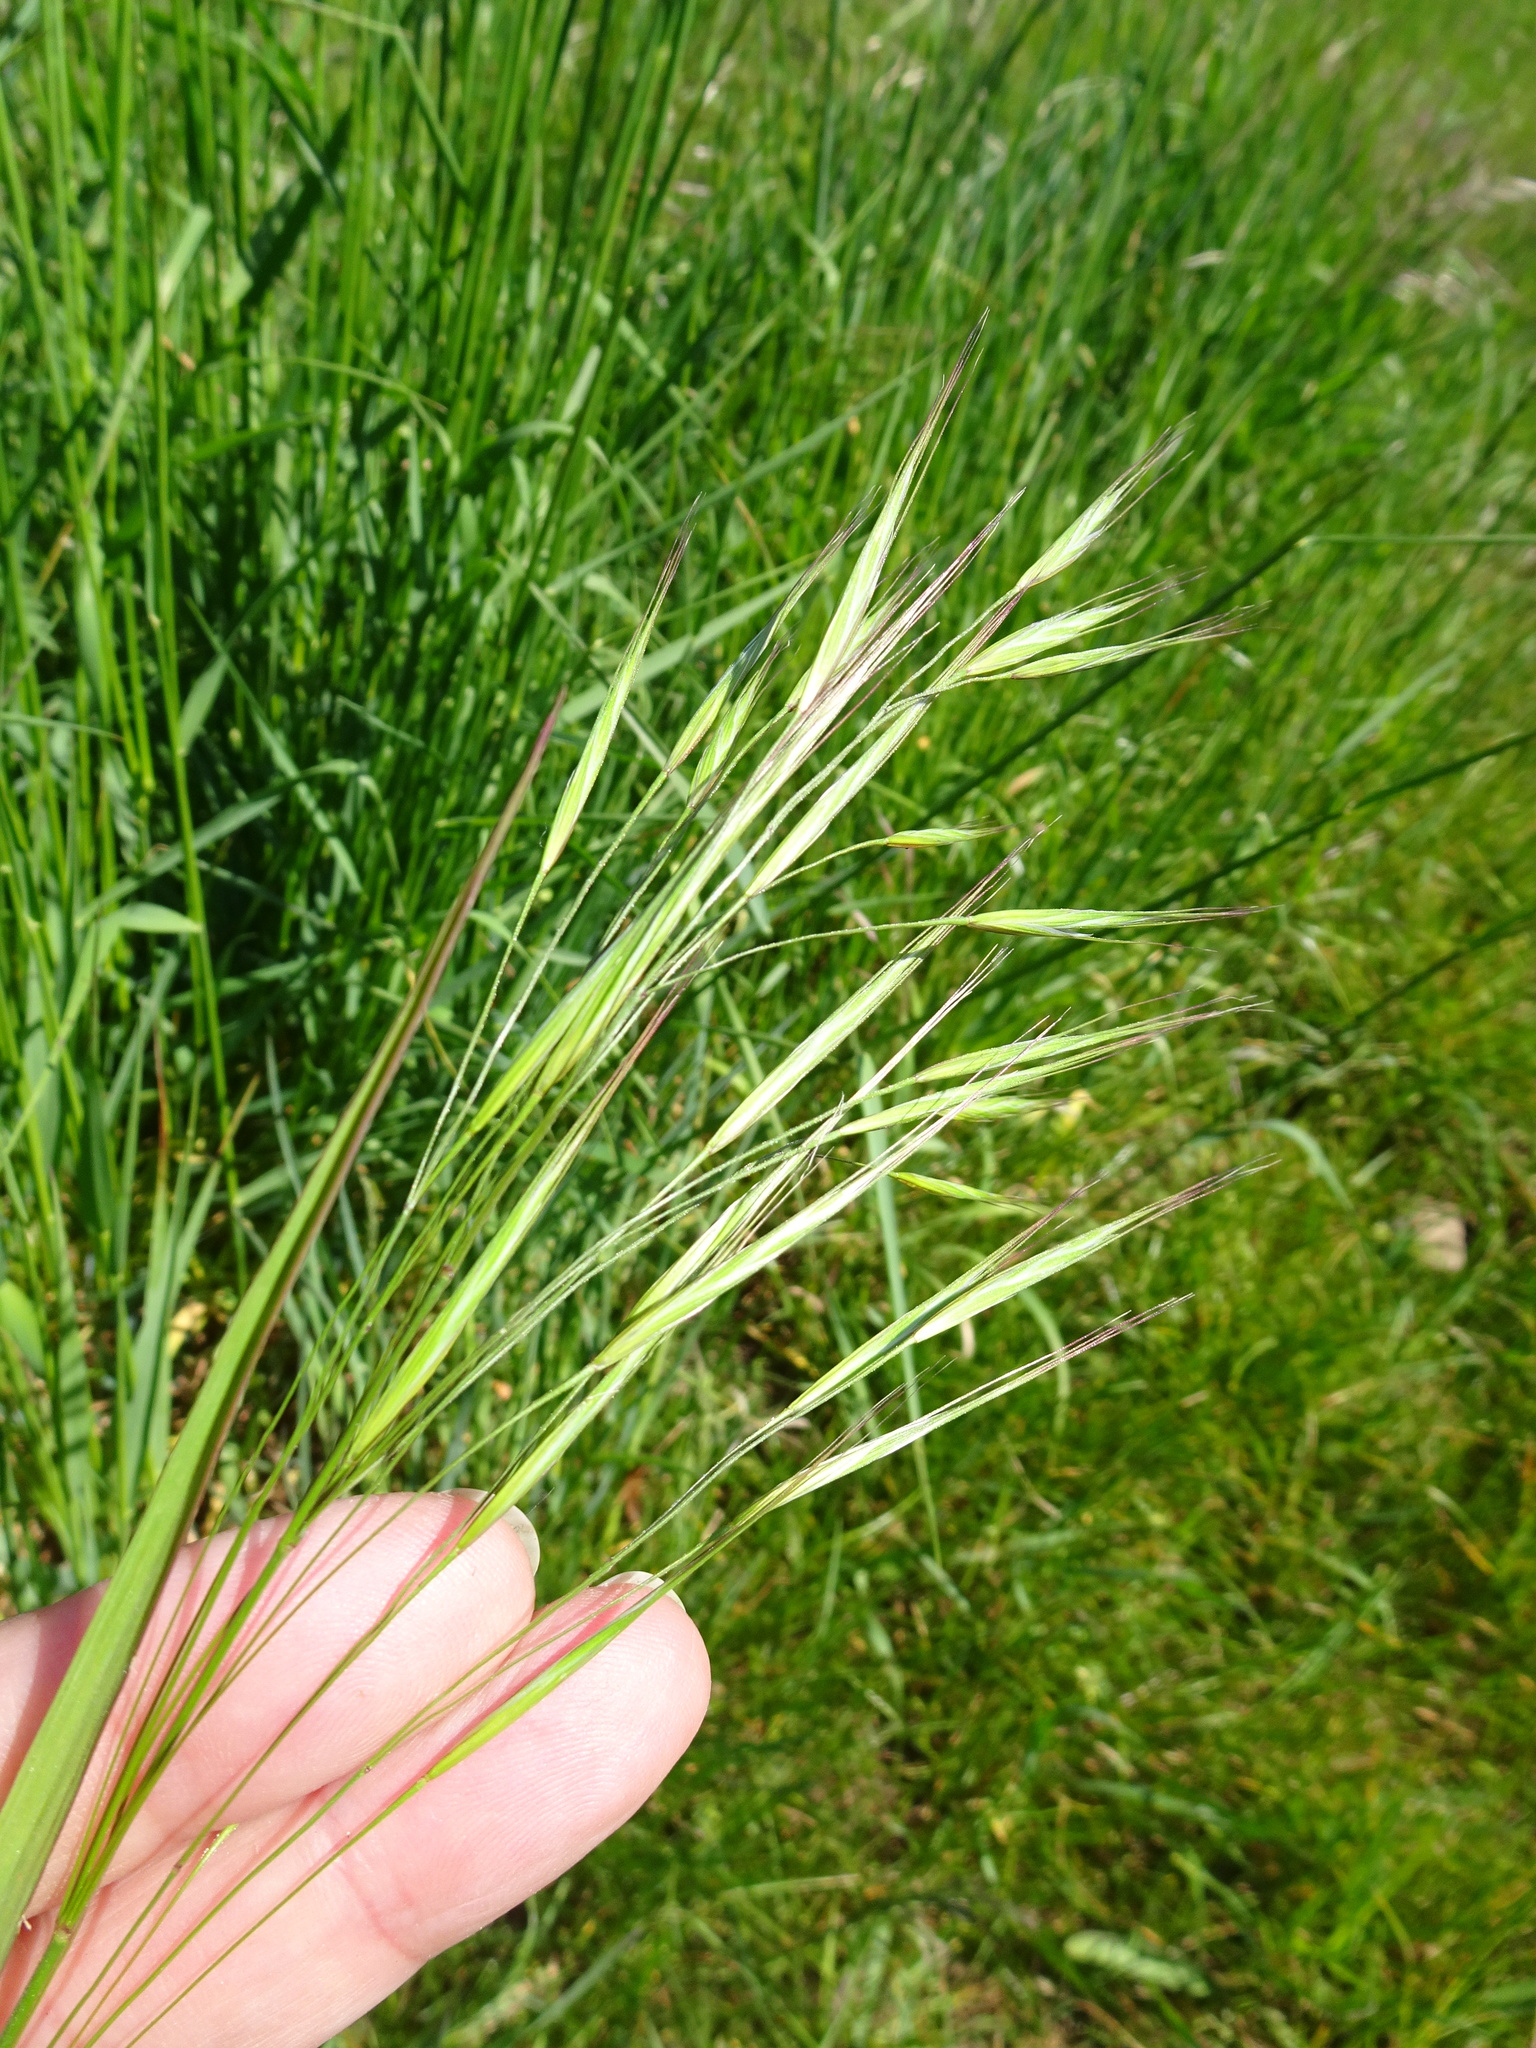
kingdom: Plantae
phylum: Tracheophyta
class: Liliopsida
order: Poales
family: Poaceae
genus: Bromus
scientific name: Bromus sterilis
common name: Poverty brome
